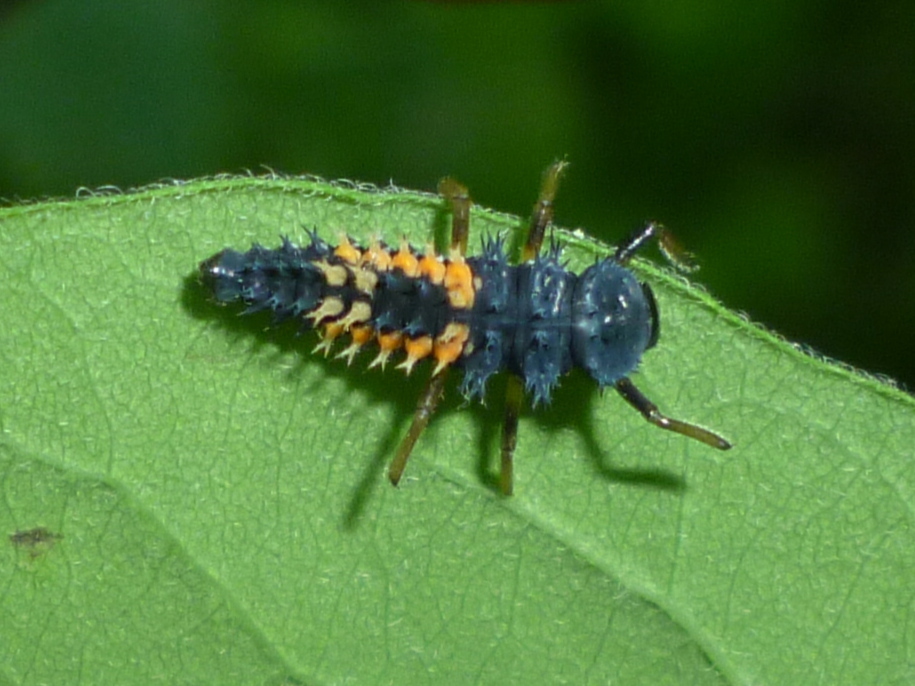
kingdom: Animalia
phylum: Arthropoda
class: Insecta
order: Coleoptera
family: Coccinellidae
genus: Harmonia
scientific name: Harmonia axyridis
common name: Harlequin ladybird
